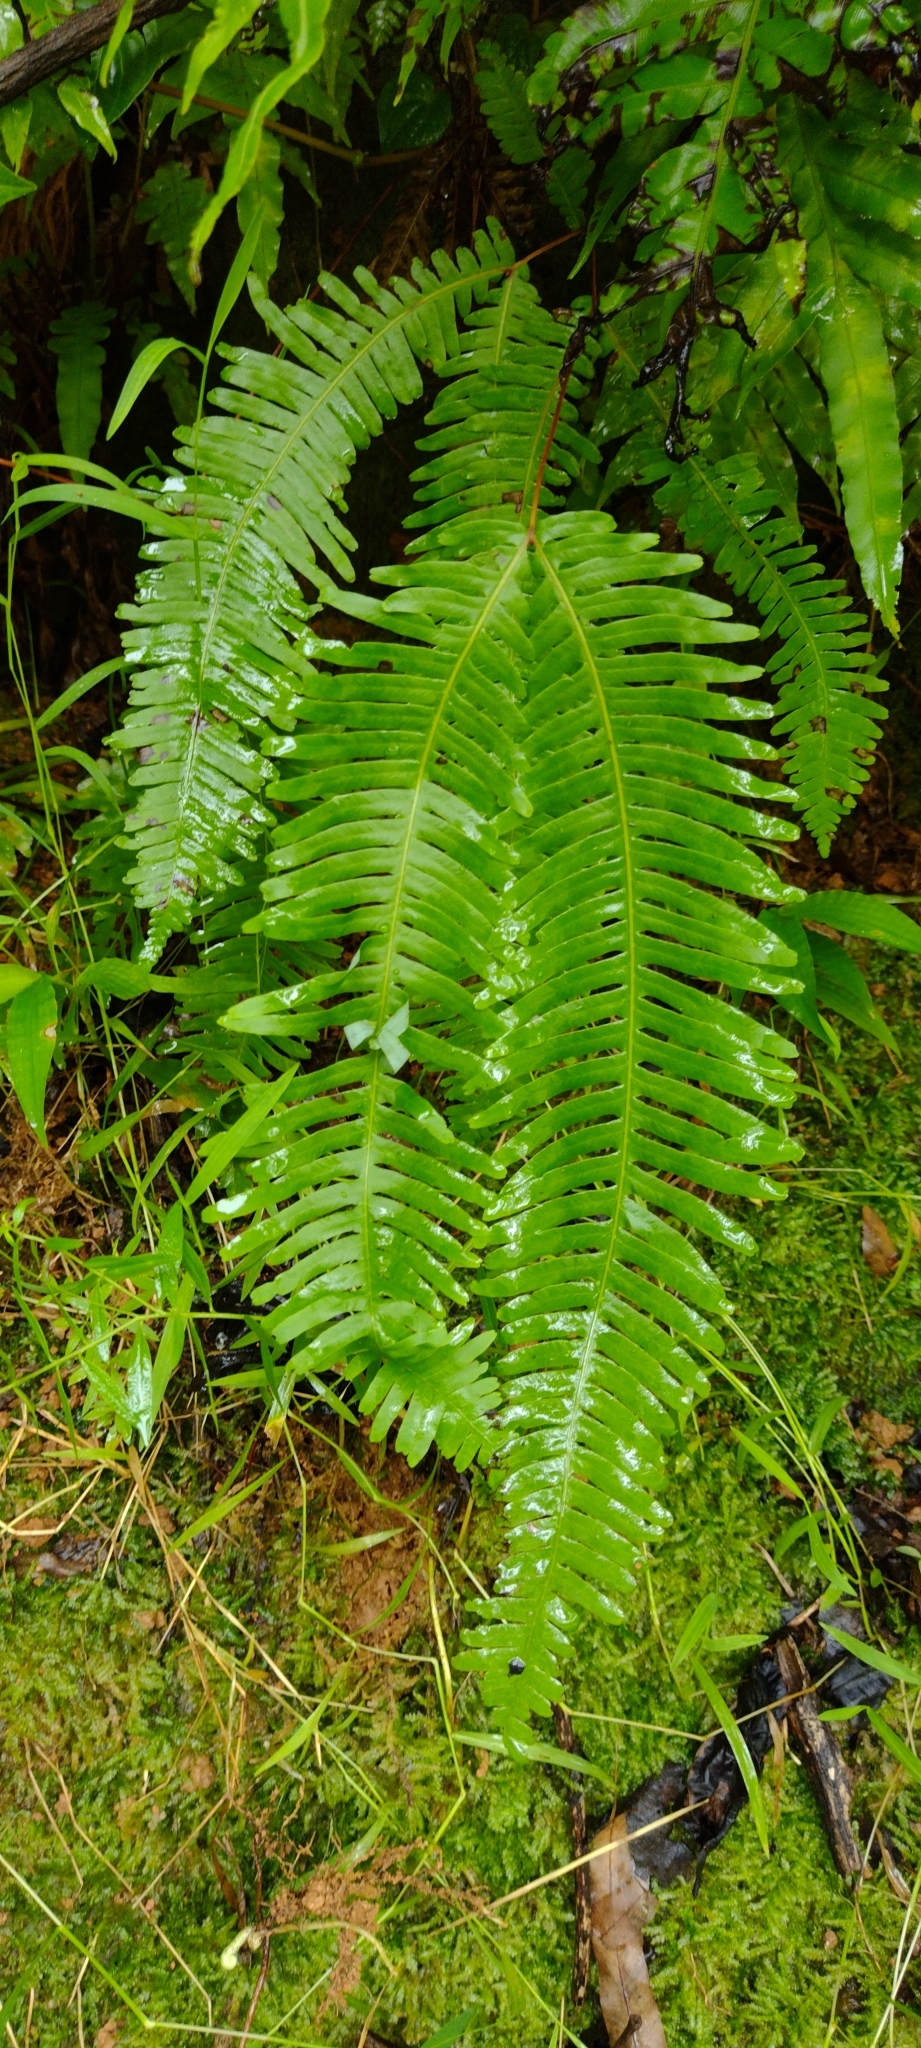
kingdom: Plantae
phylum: Tracheophyta
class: Polypodiopsida
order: Gleicheniales
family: Gleicheniaceae
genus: Dicranopteris
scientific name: Dicranopteris linearis
